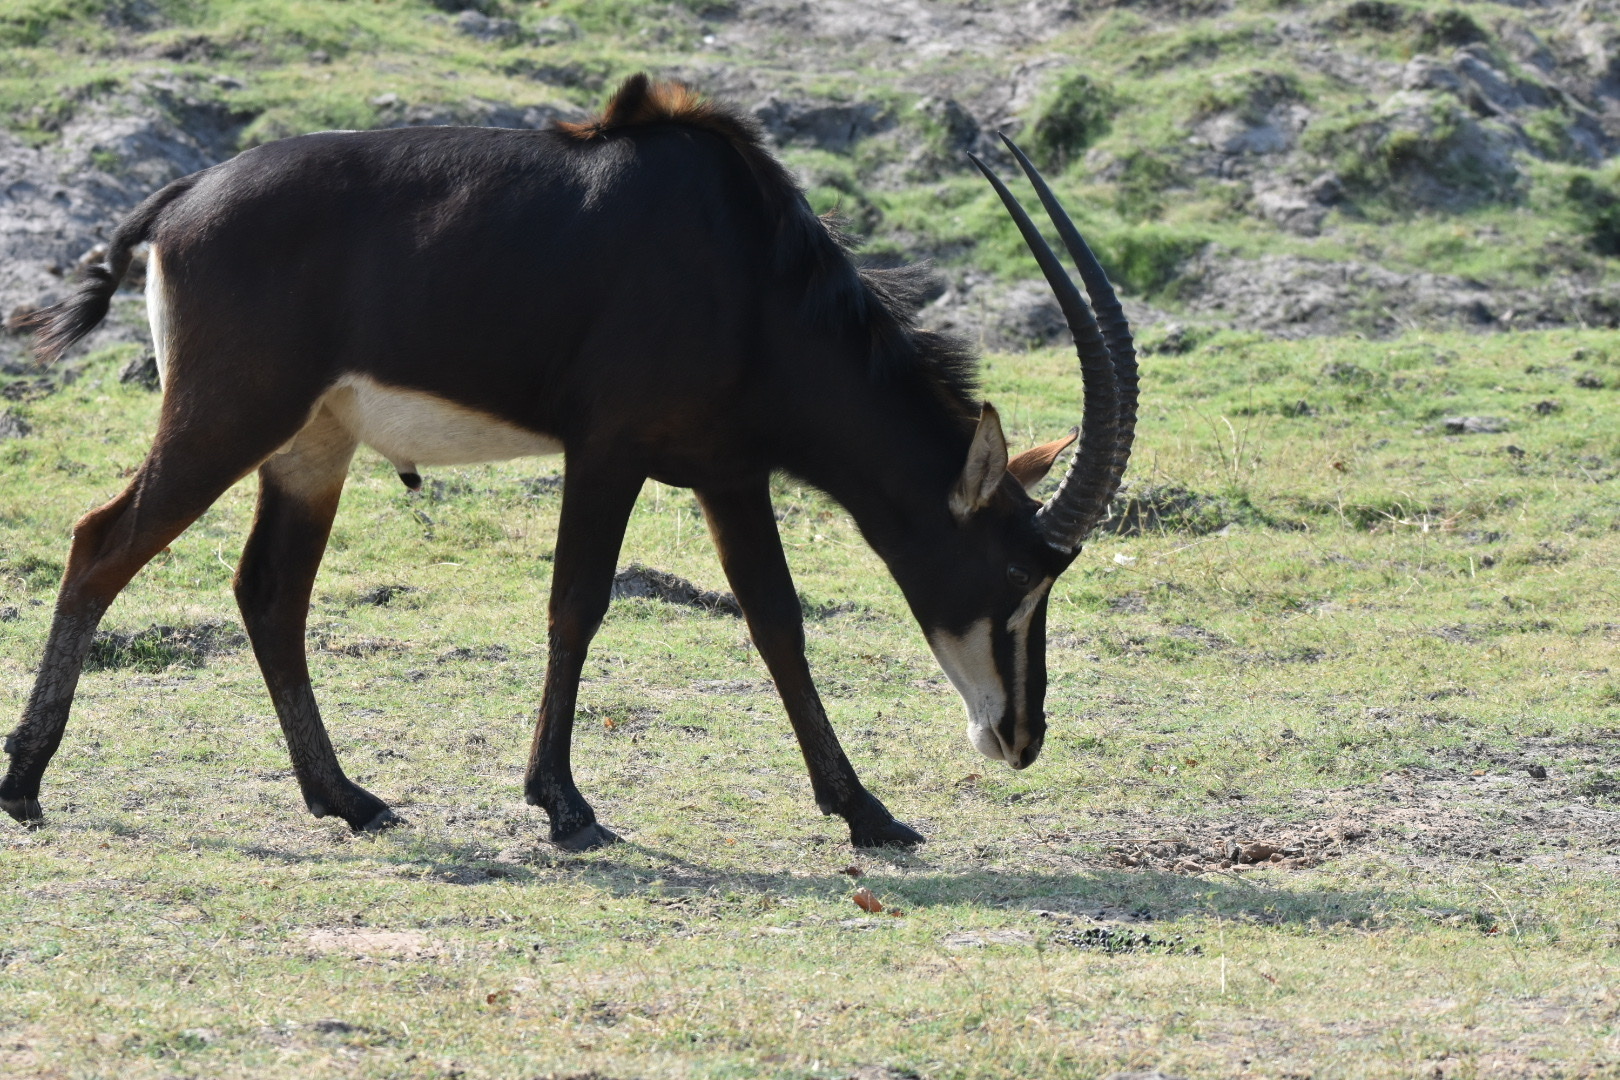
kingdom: Animalia
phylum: Chordata
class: Mammalia
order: Artiodactyla
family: Bovidae
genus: Hippotragus
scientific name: Hippotragus niger
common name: Sable antelope
